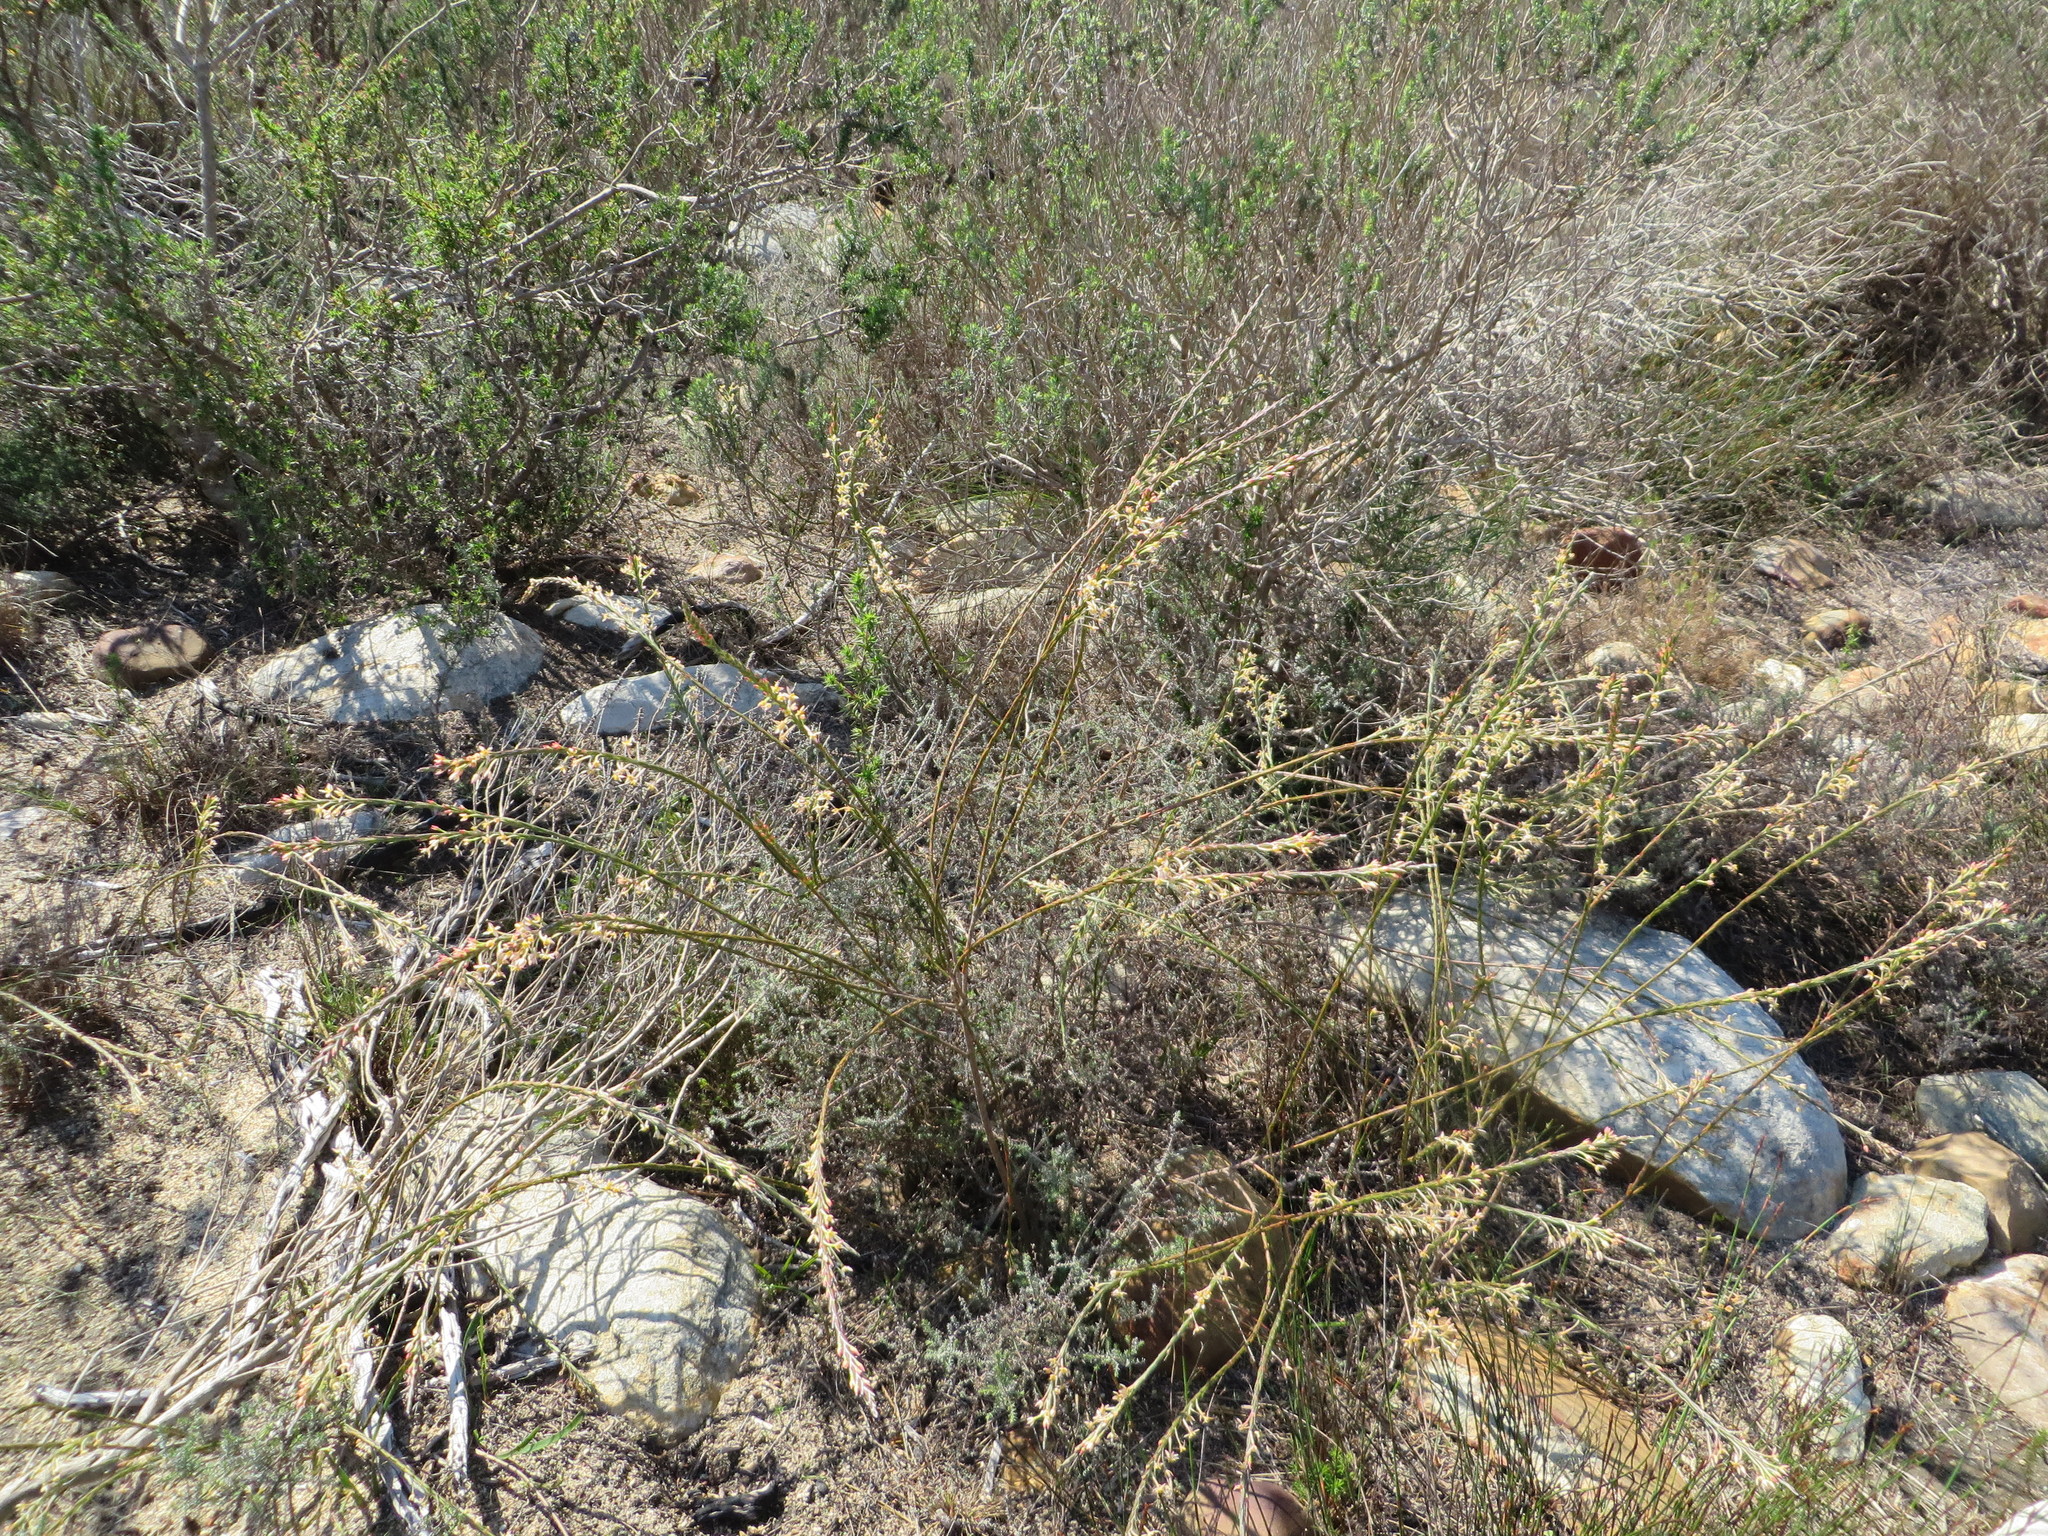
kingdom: Plantae
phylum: Tracheophyta
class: Magnoliopsida
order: Malvales
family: Thymelaeaceae
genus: Struthiola
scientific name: Struthiola ciliata
